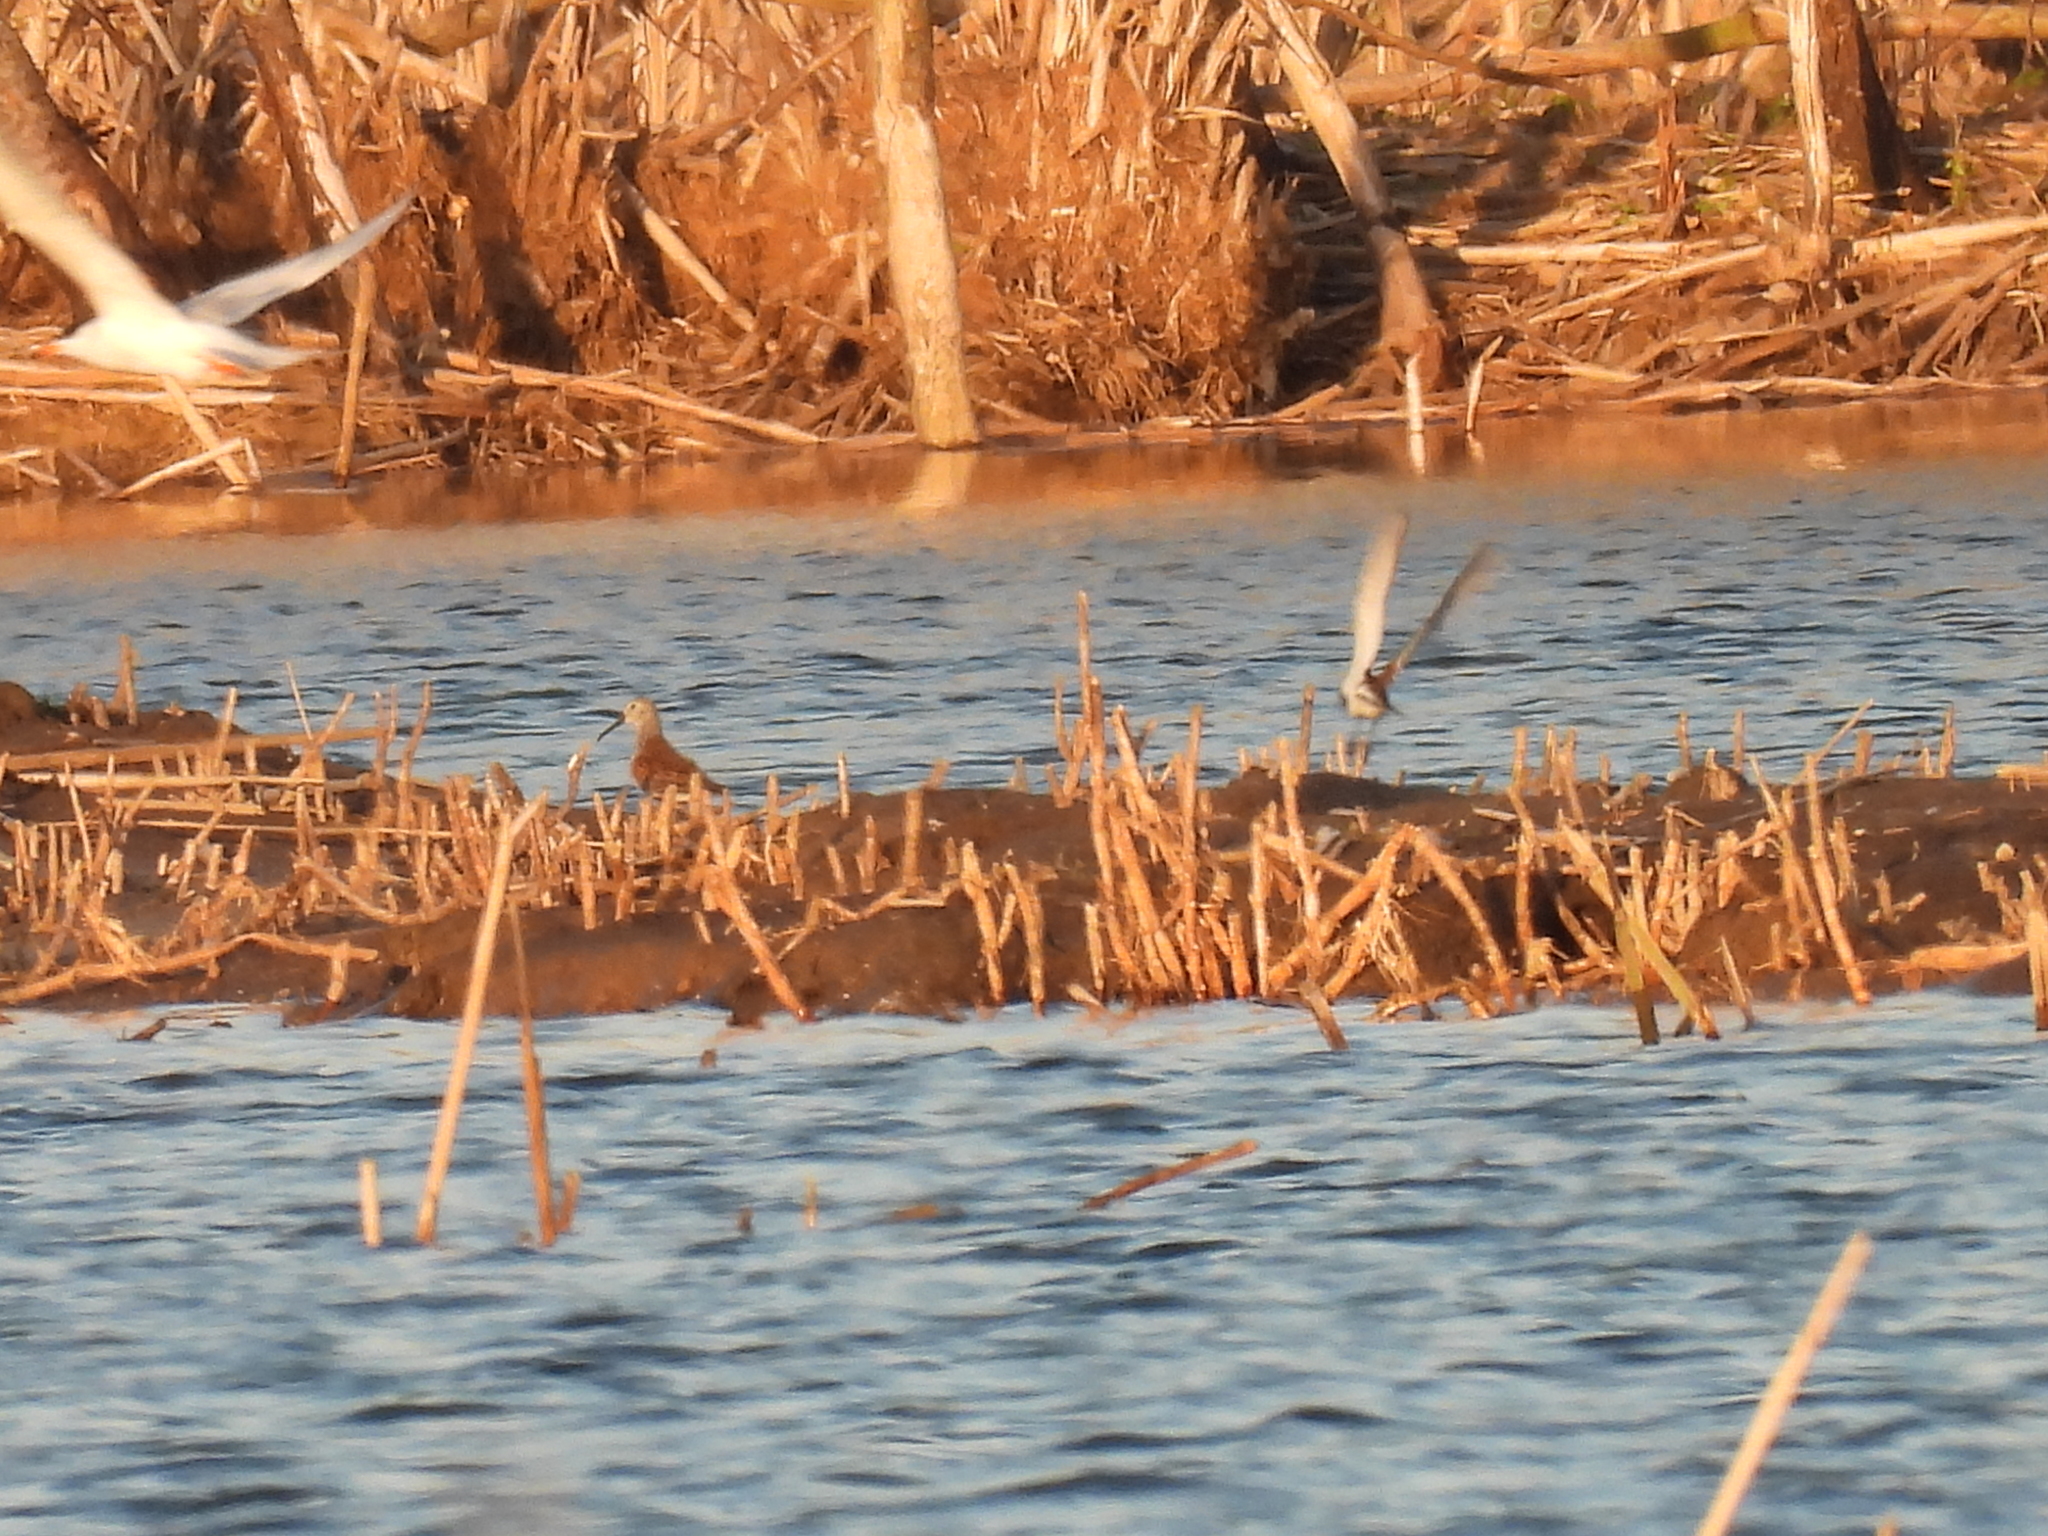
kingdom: Animalia
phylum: Chordata
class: Aves
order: Charadriiformes
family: Scolopacidae
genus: Calidris
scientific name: Calidris alpina
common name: Dunlin
